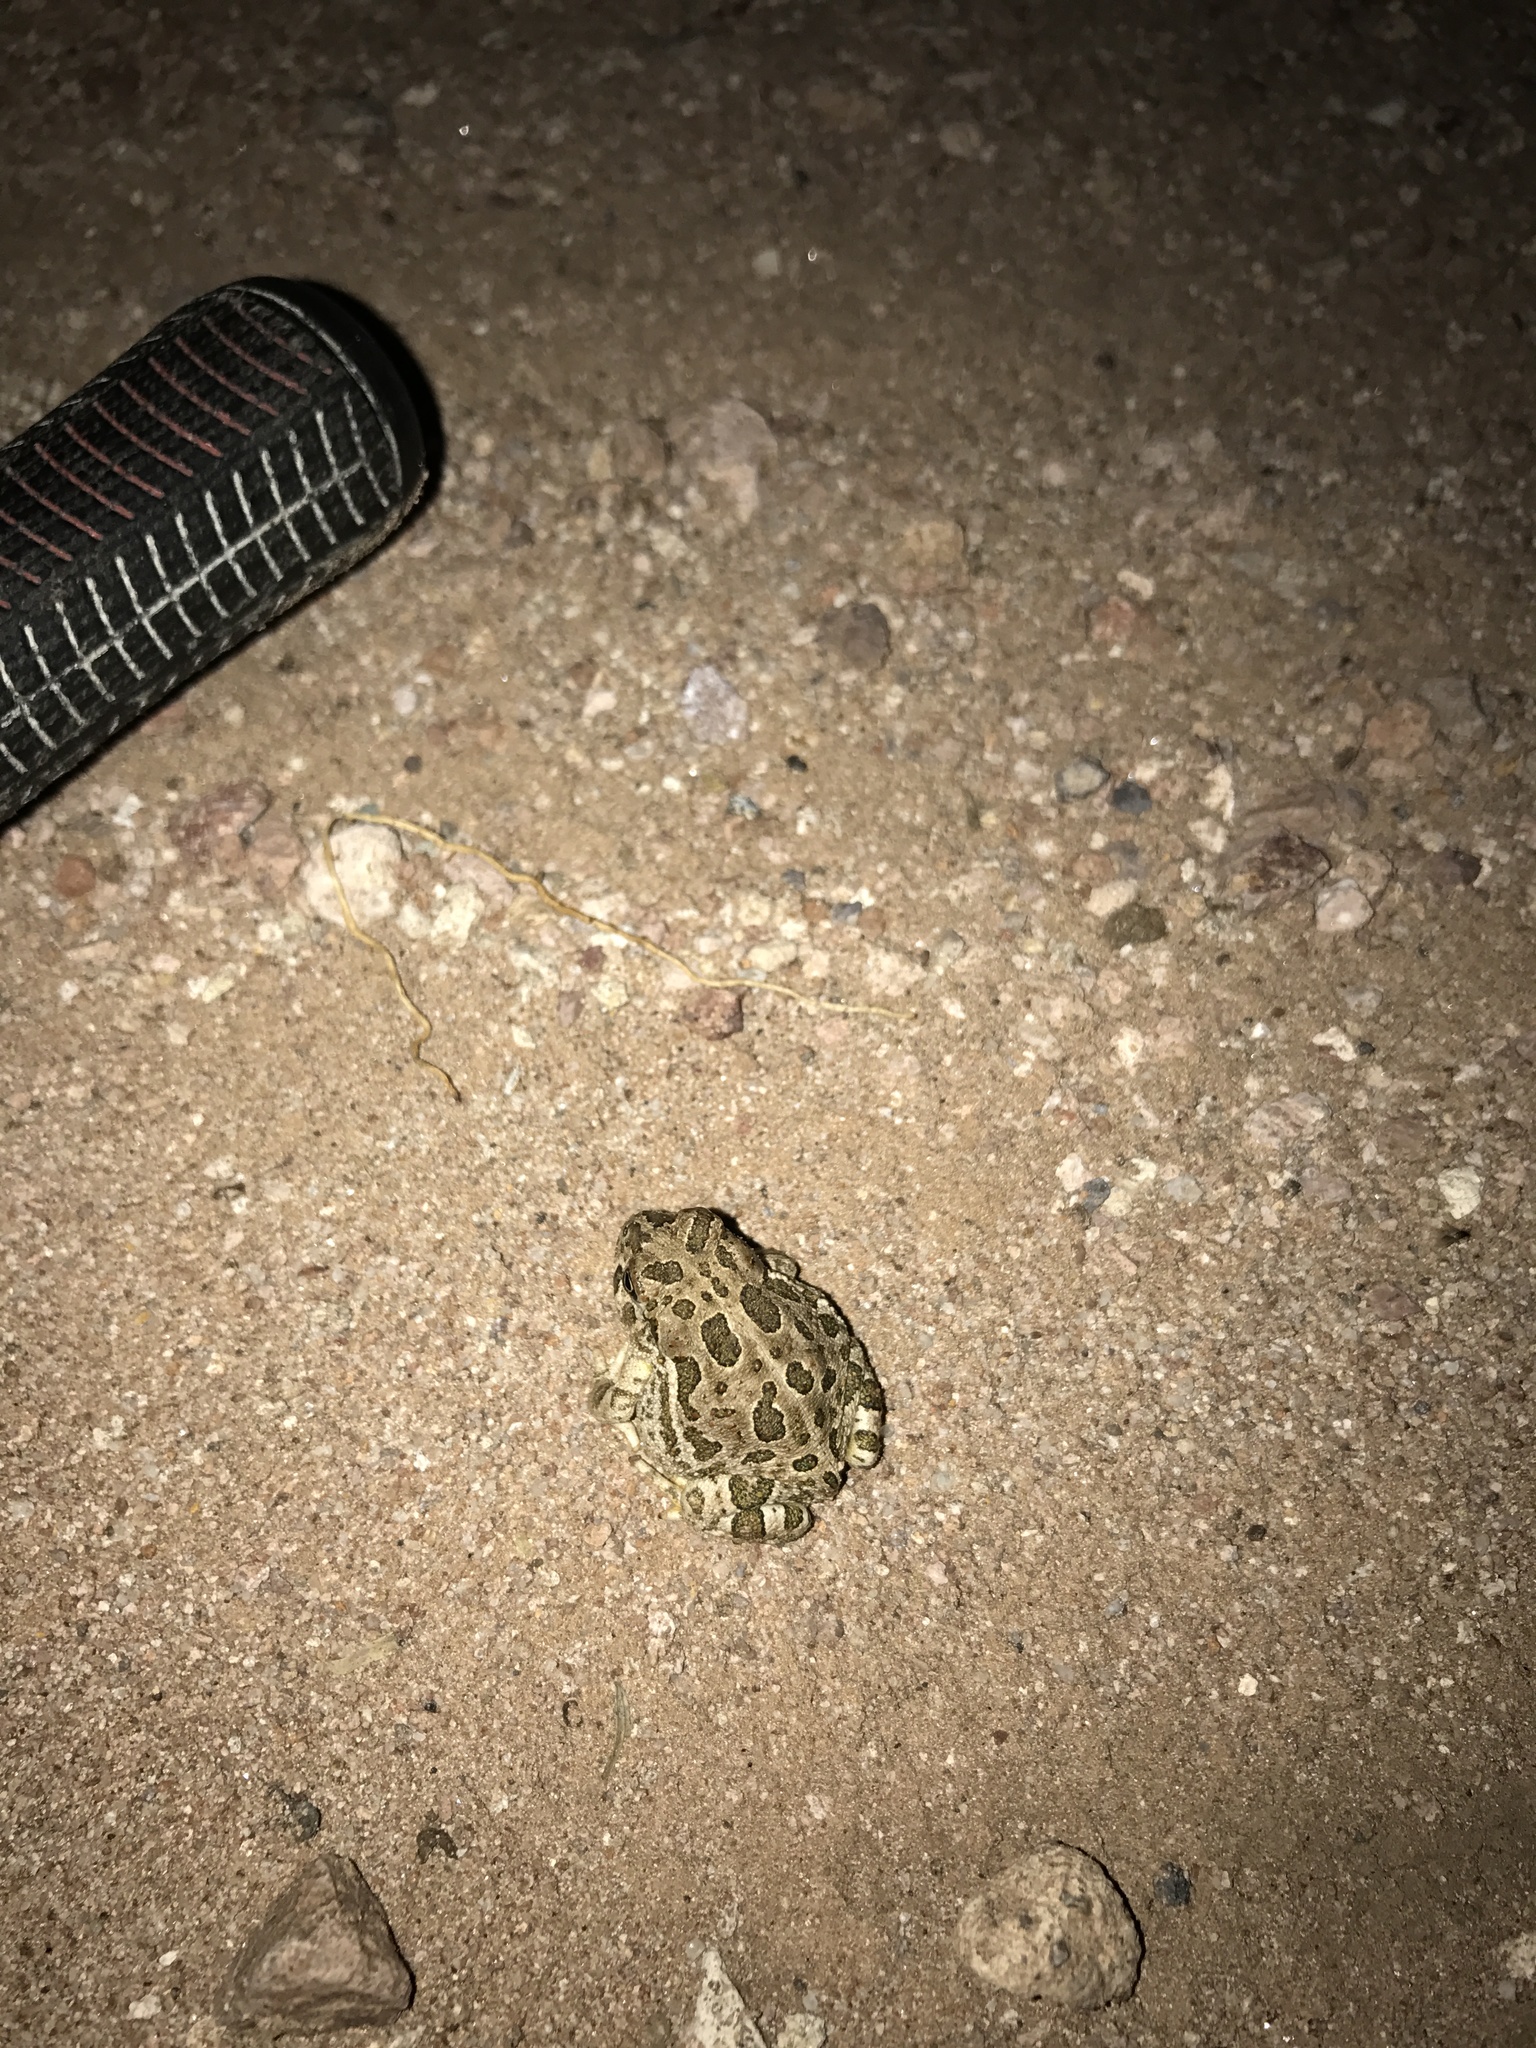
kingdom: Animalia
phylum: Chordata
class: Amphibia
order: Anura
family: Bufonidae
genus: Anaxyrus
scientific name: Anaxyrus cognatus
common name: Great plains toad
